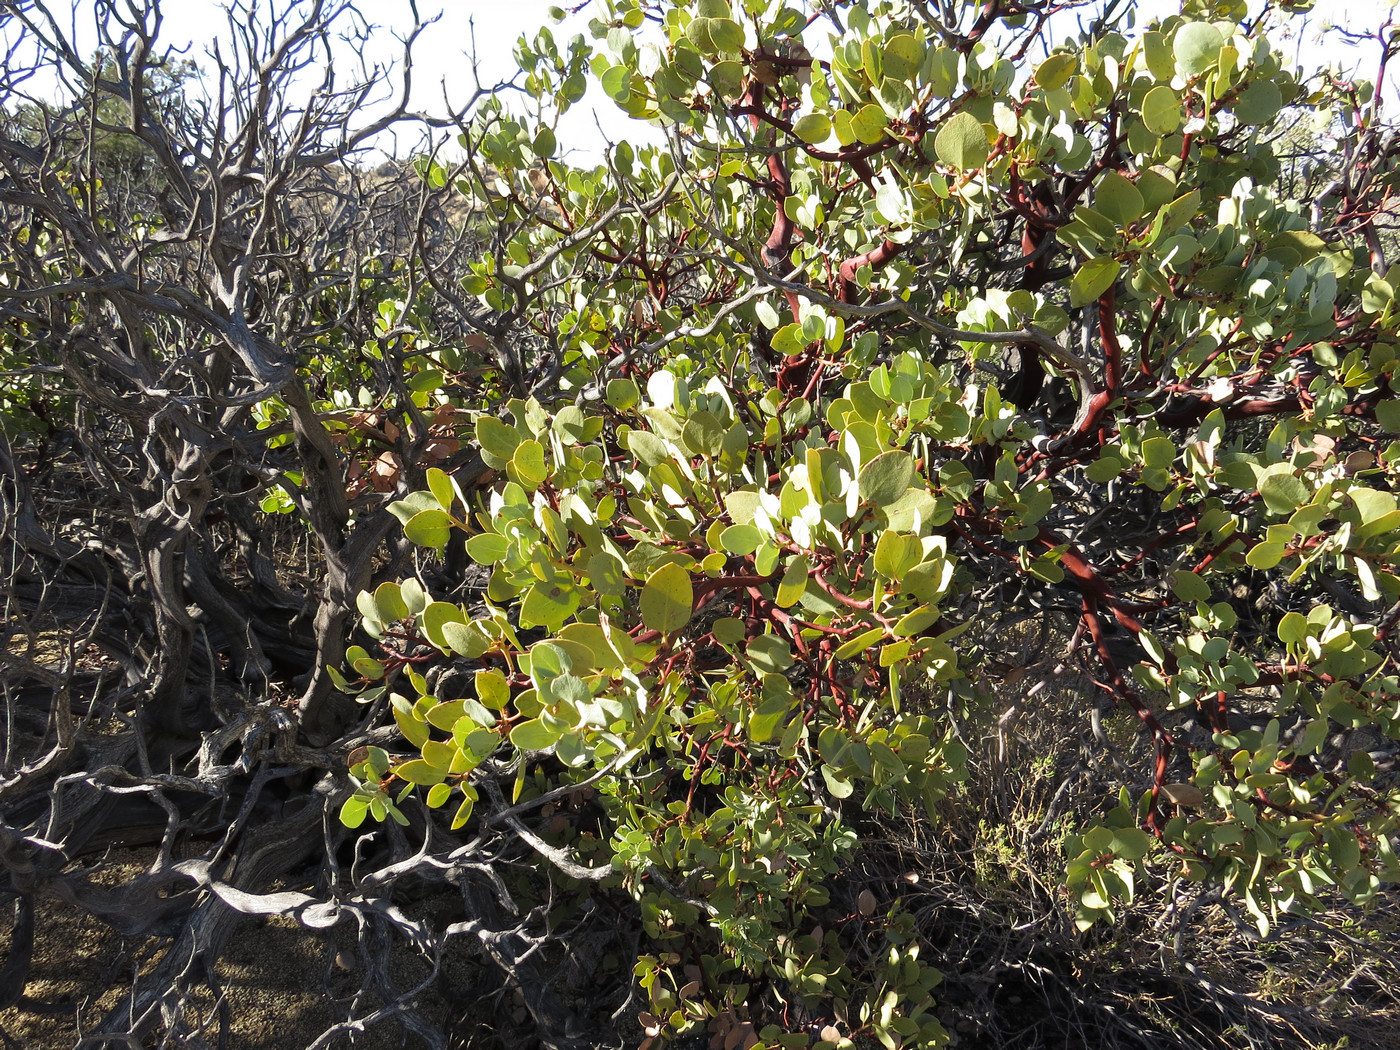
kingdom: Plantae
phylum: Tracheophyta
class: Magnoliopsida
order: Ericales
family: Ericaceae
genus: Arctostaphylos
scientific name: Arctostaphylos glauca
